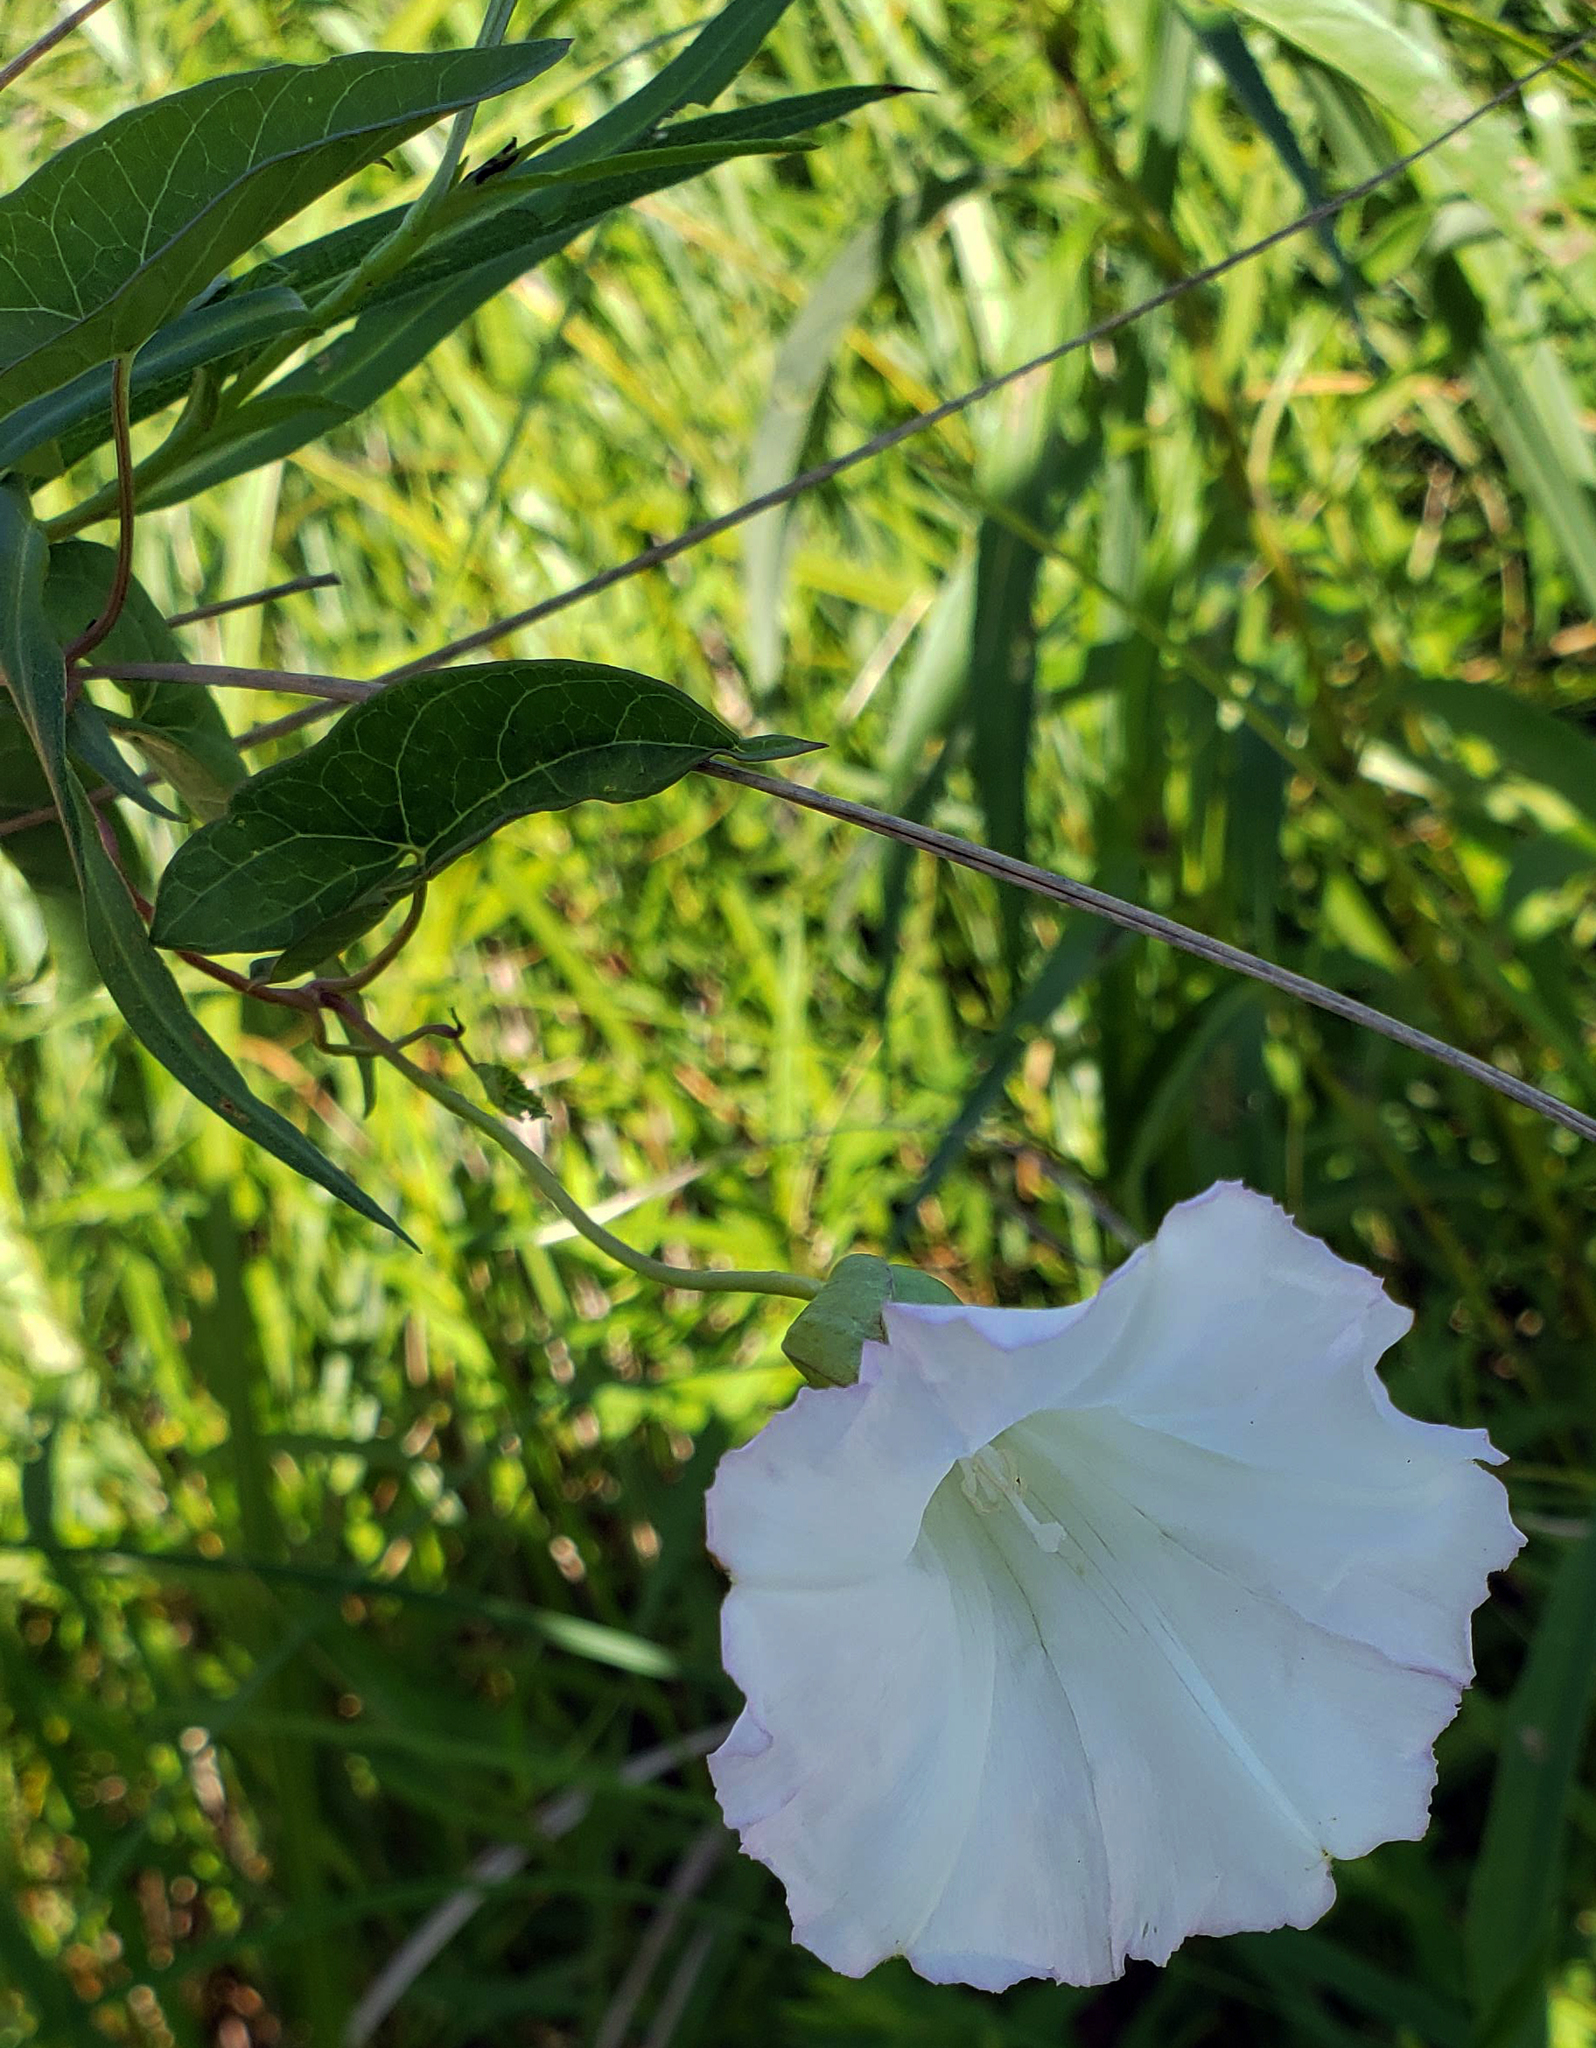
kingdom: Plantae
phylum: Tracheophyta
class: Magnoliopsida
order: Solanales
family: Convolvulaceae
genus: Calystegia
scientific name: Calystegia sepium
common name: Hedge bindweed
